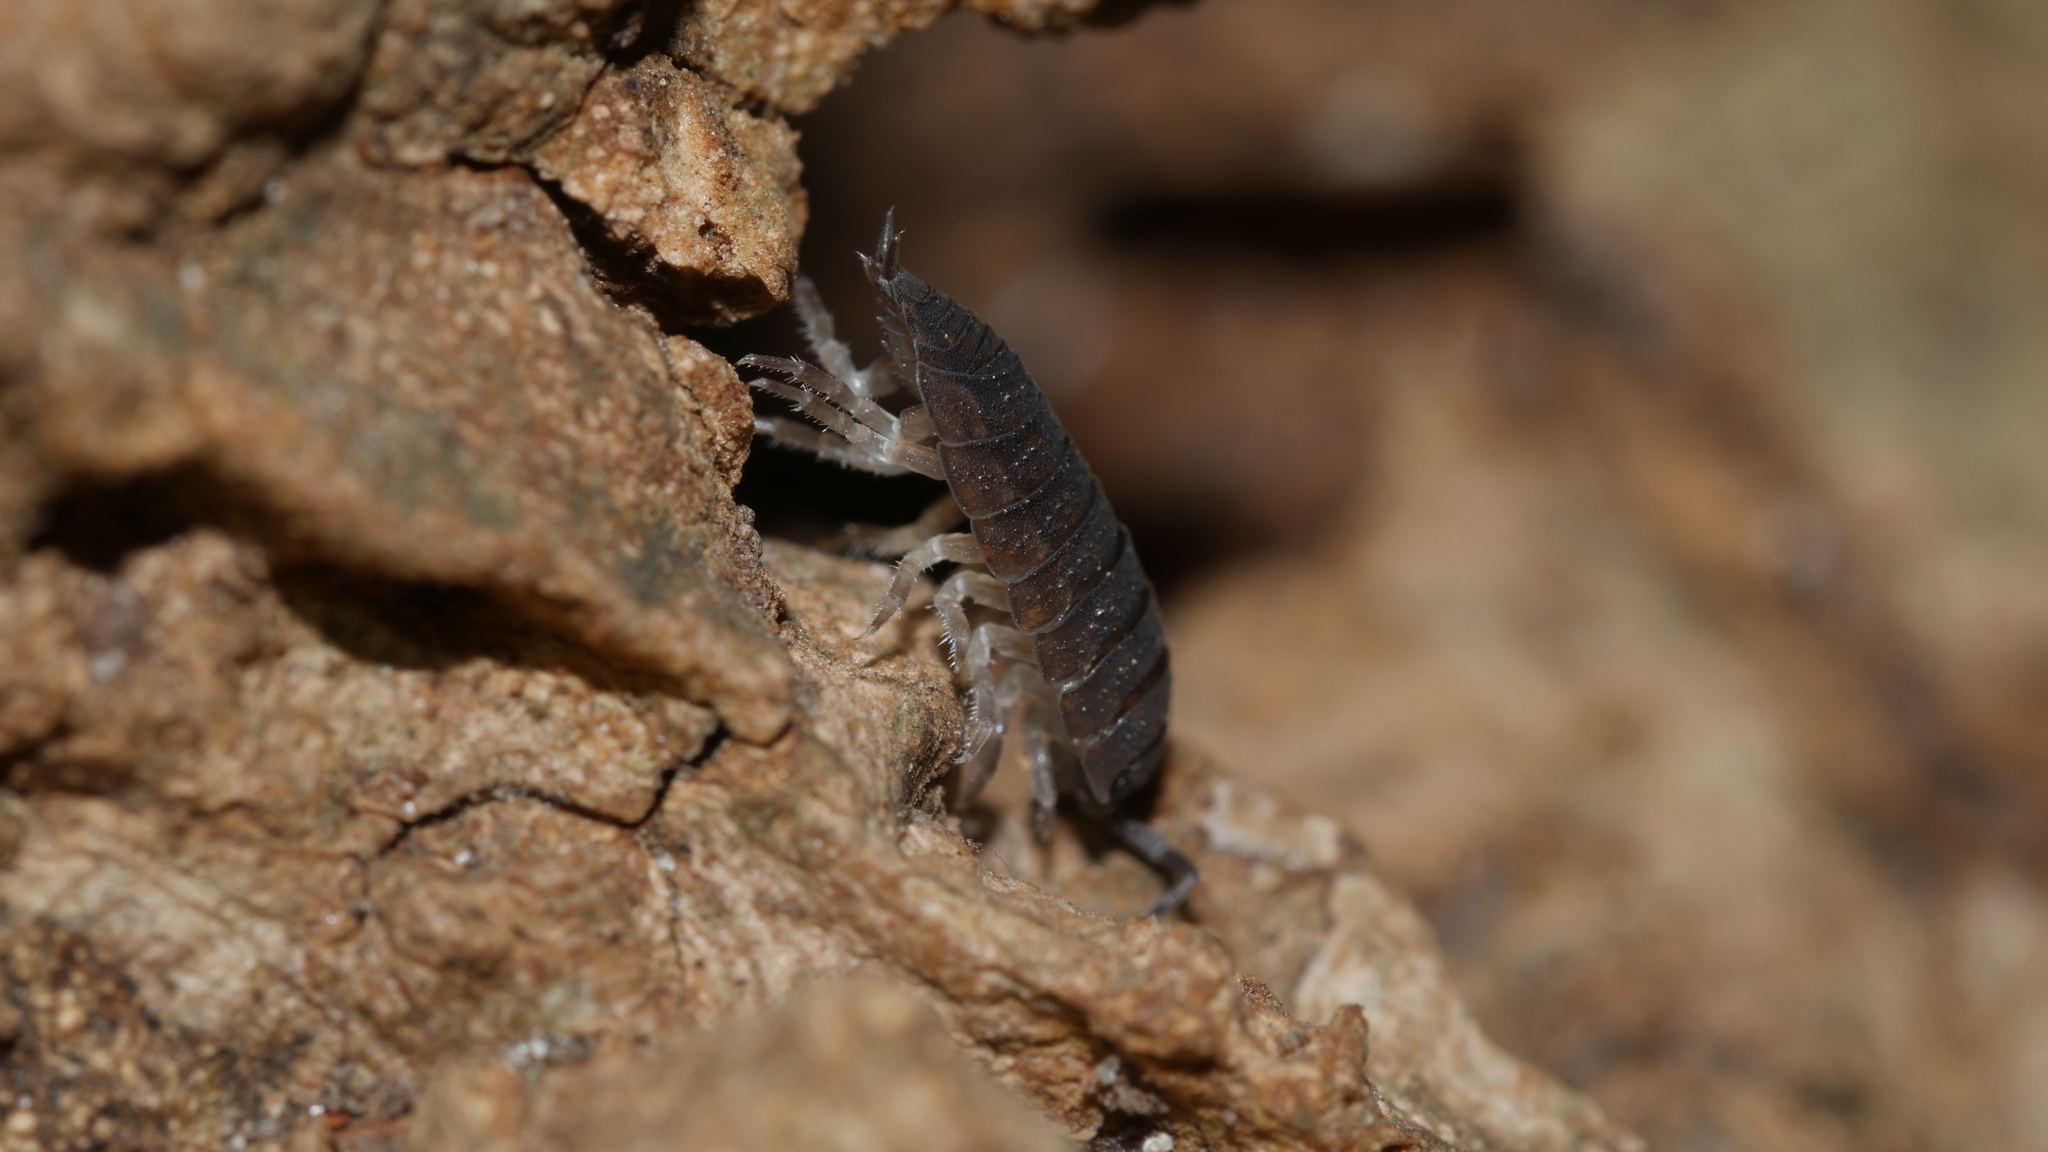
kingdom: Animalia
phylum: Arthropoda
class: Malacostraca
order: Isopoda
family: Porcellionidae
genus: Porcellio
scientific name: Porcellio scaber
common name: Common rough woodlouse
